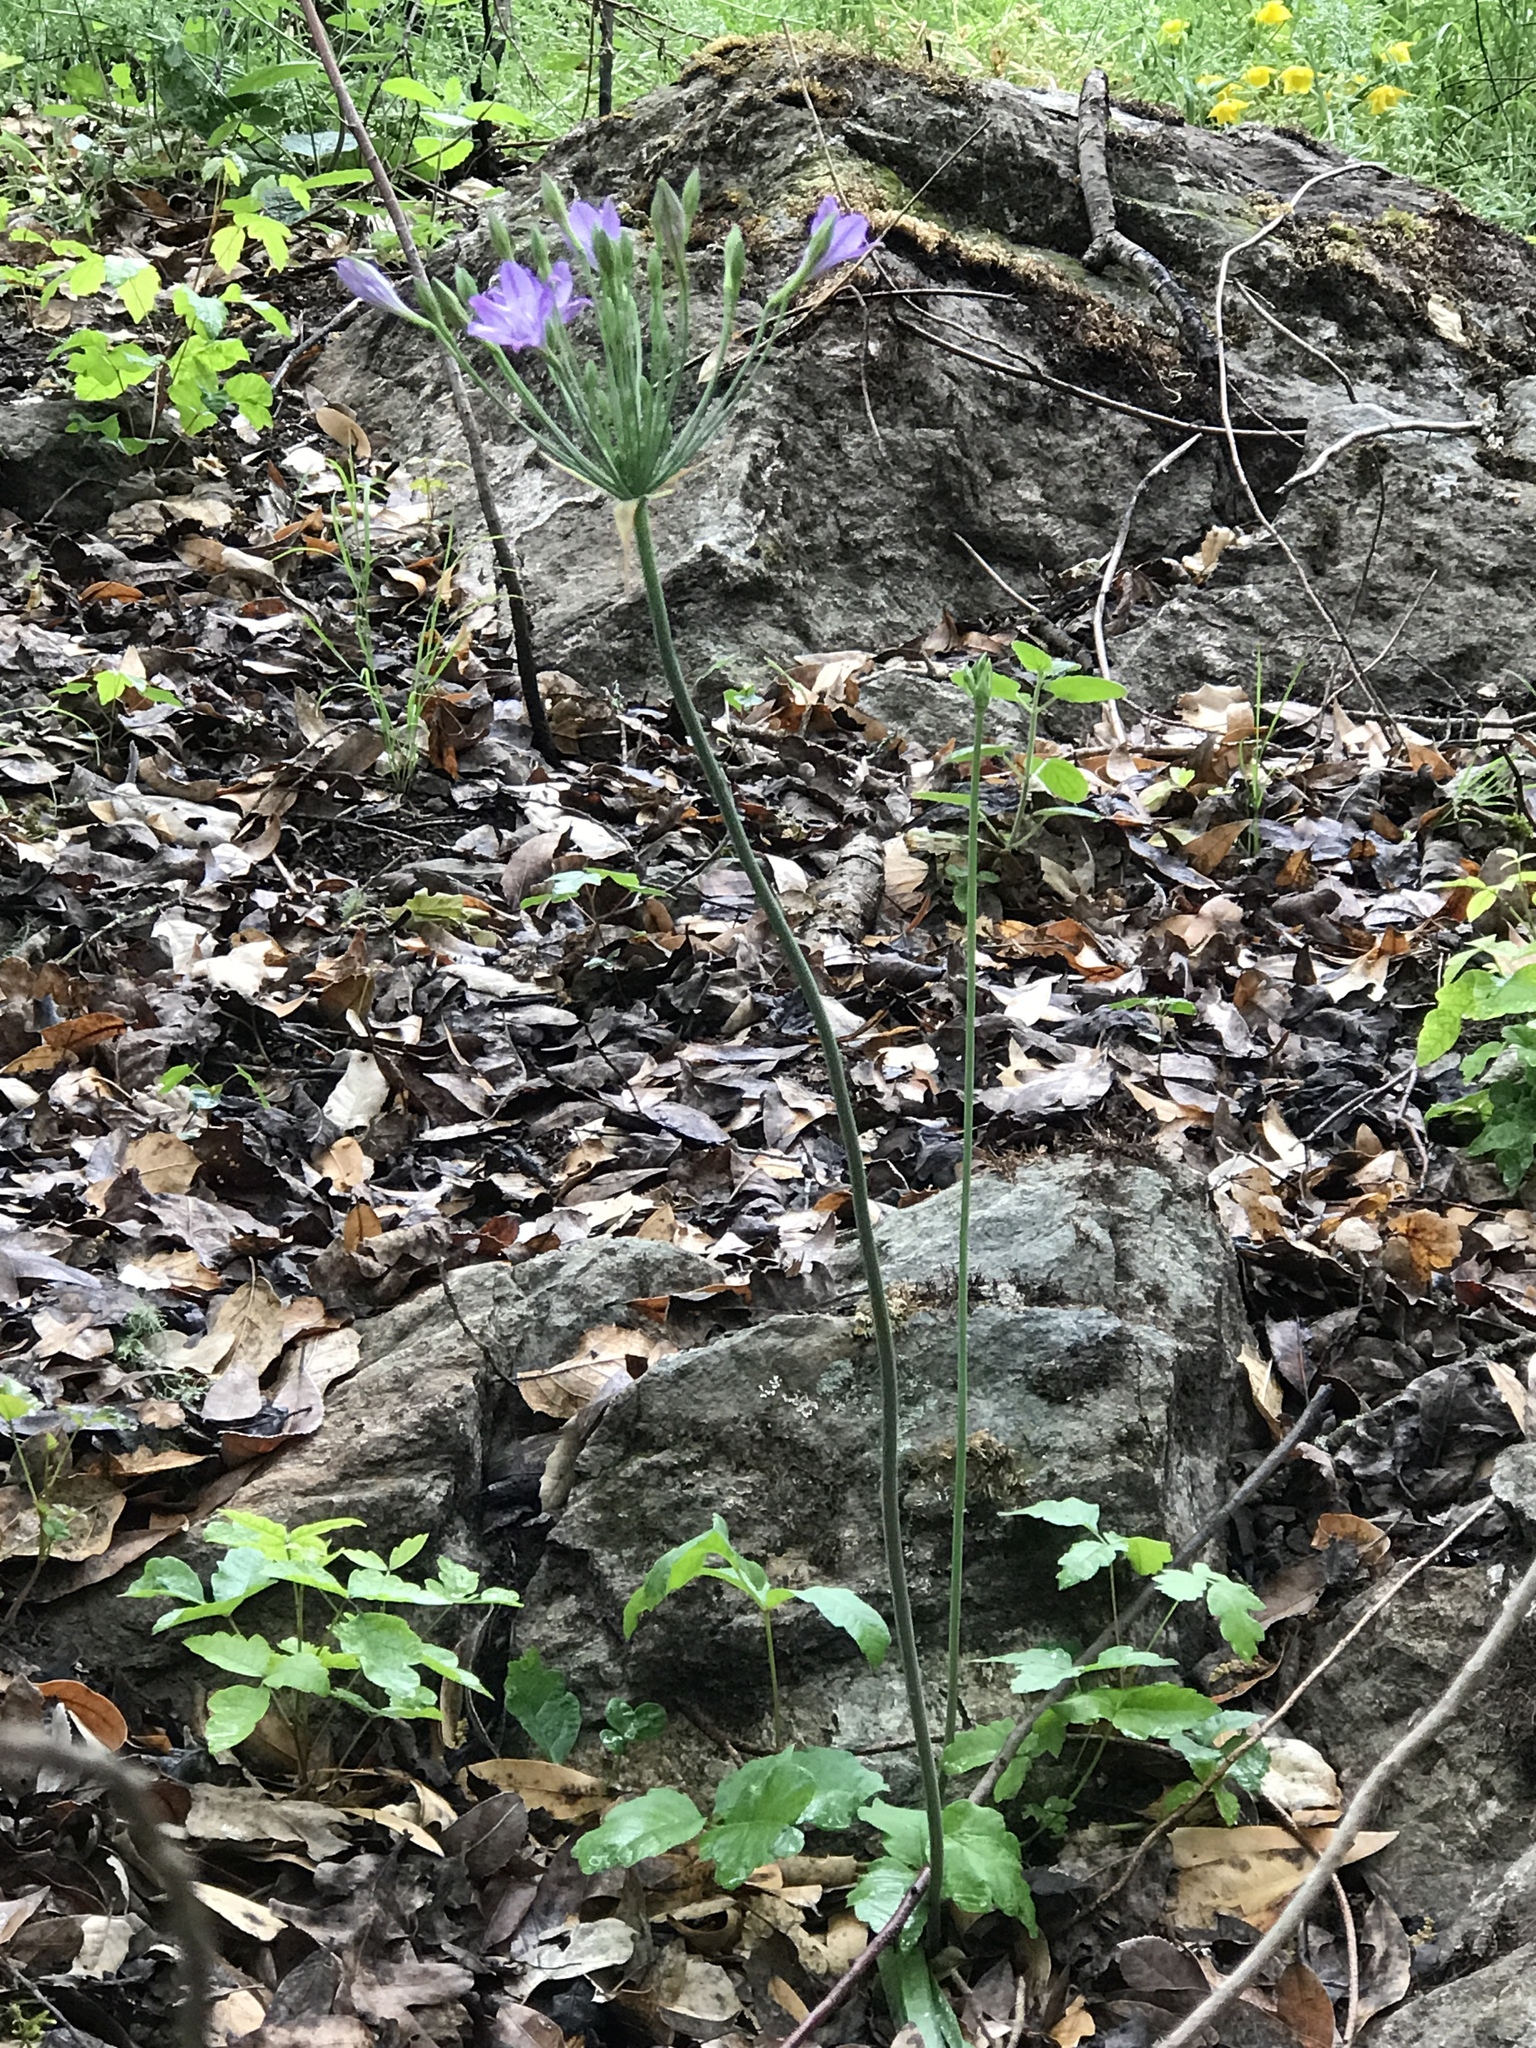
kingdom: Plantae
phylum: Tracheophyta
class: Liliopsida
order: Asparagales
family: Asparagaceae
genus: Triteleia
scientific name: Triteleia laxa
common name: Triplet-lily
